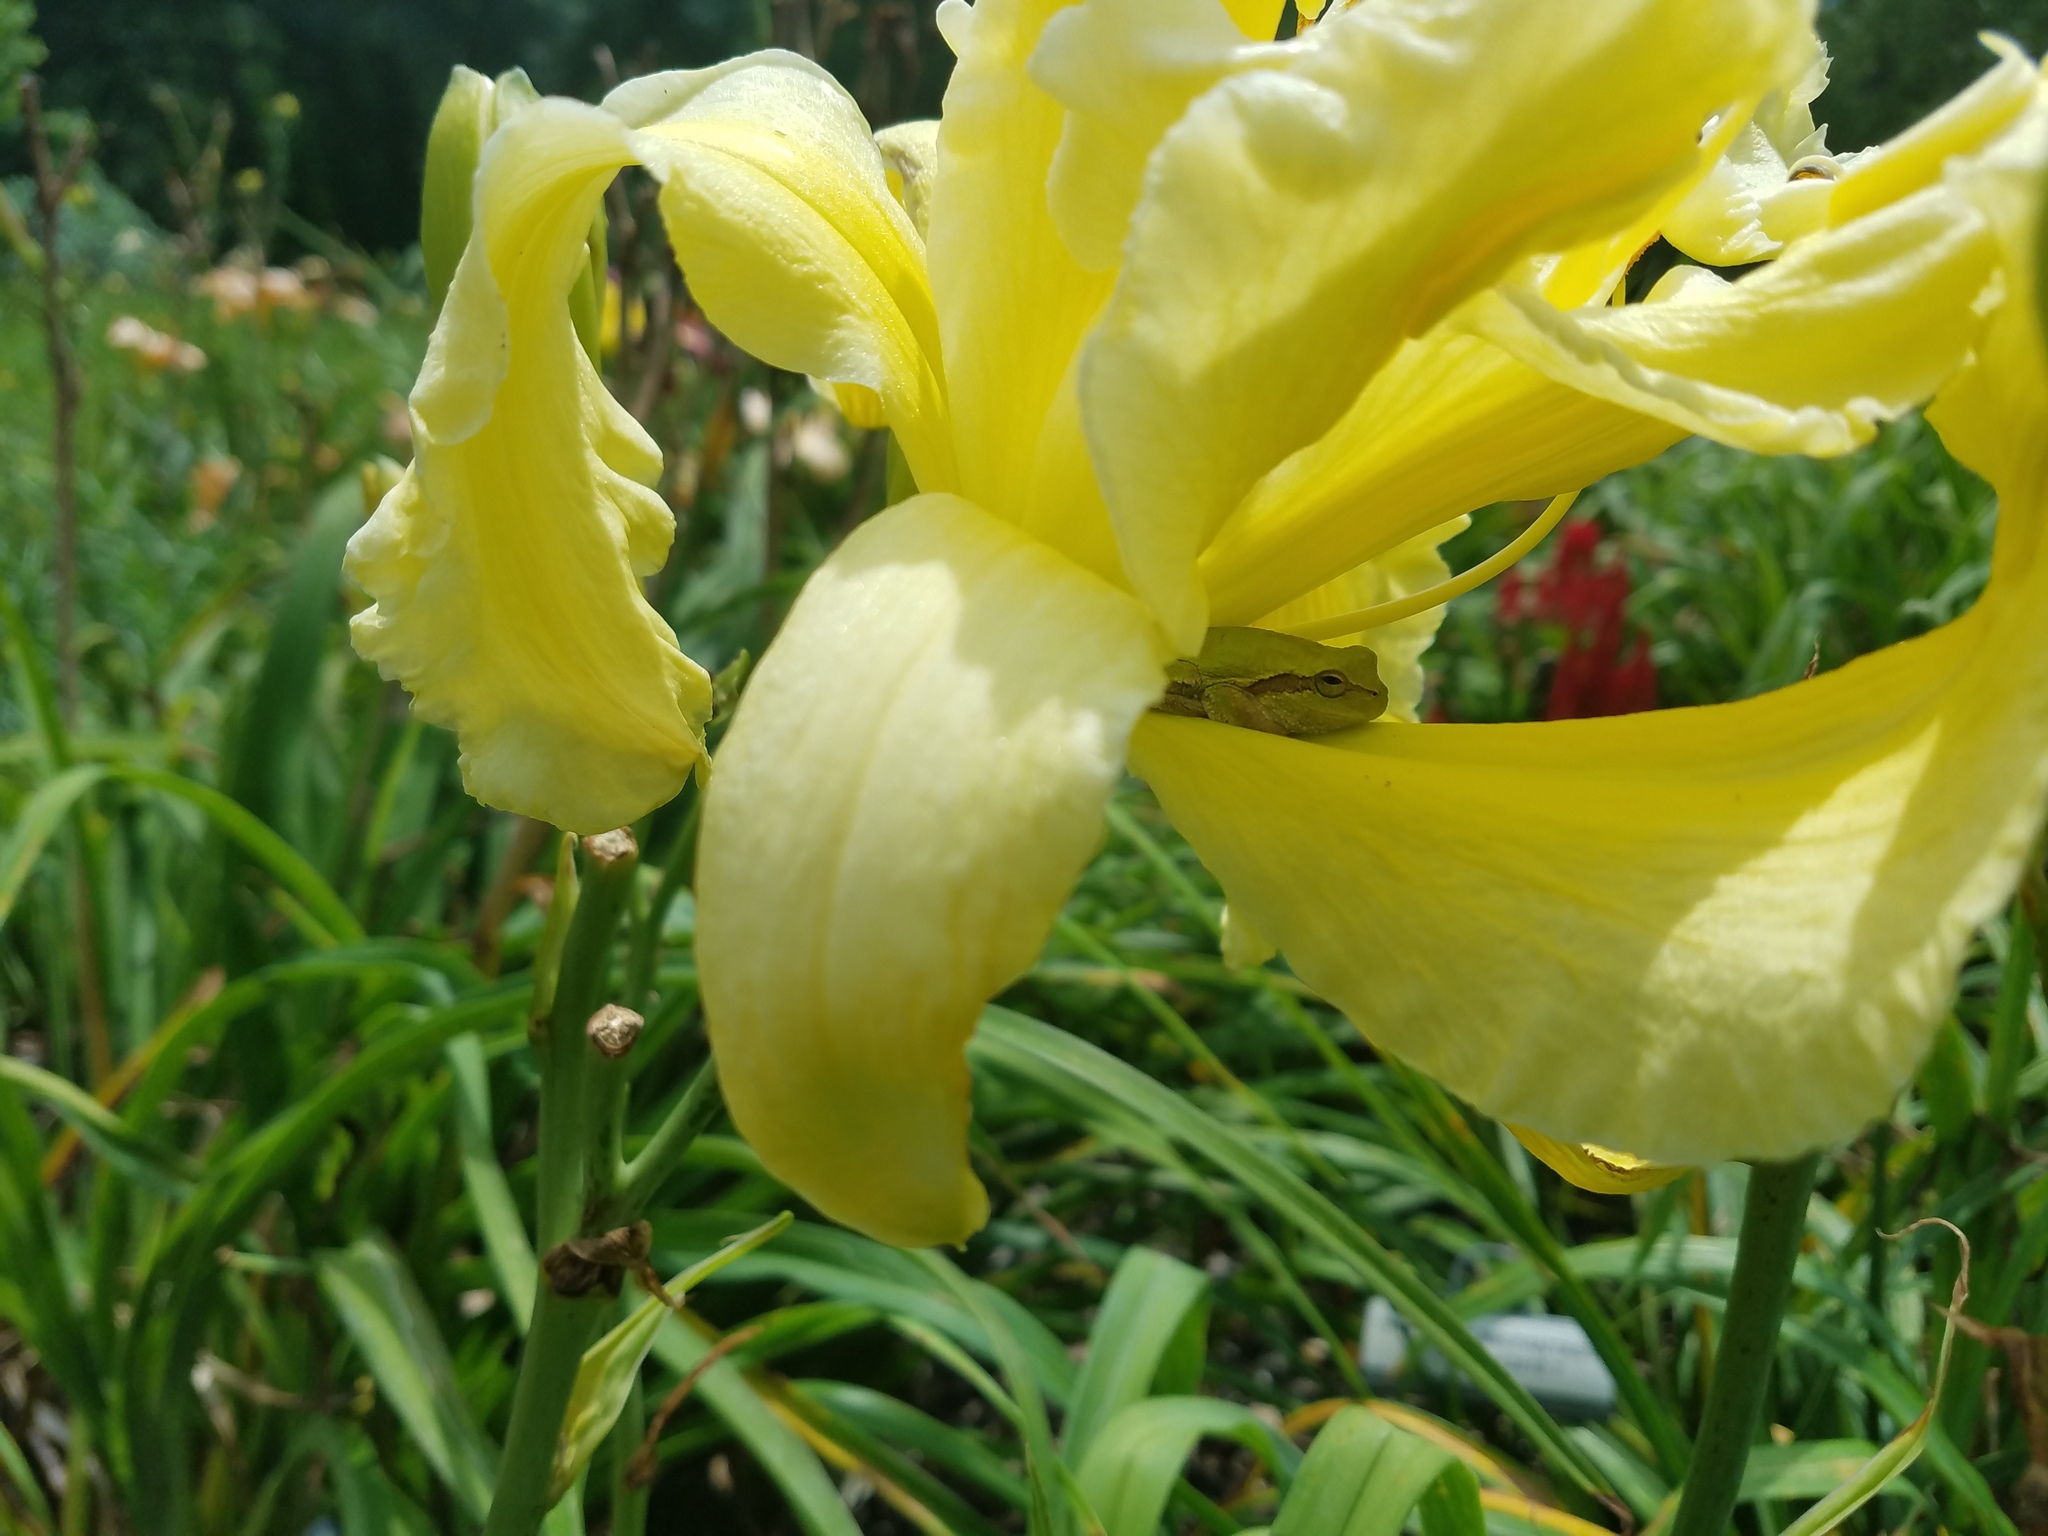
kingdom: Animalia
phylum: Chordata
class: Amphibia
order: Anura
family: Hylidae
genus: Hyla
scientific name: Hyla femoralis
